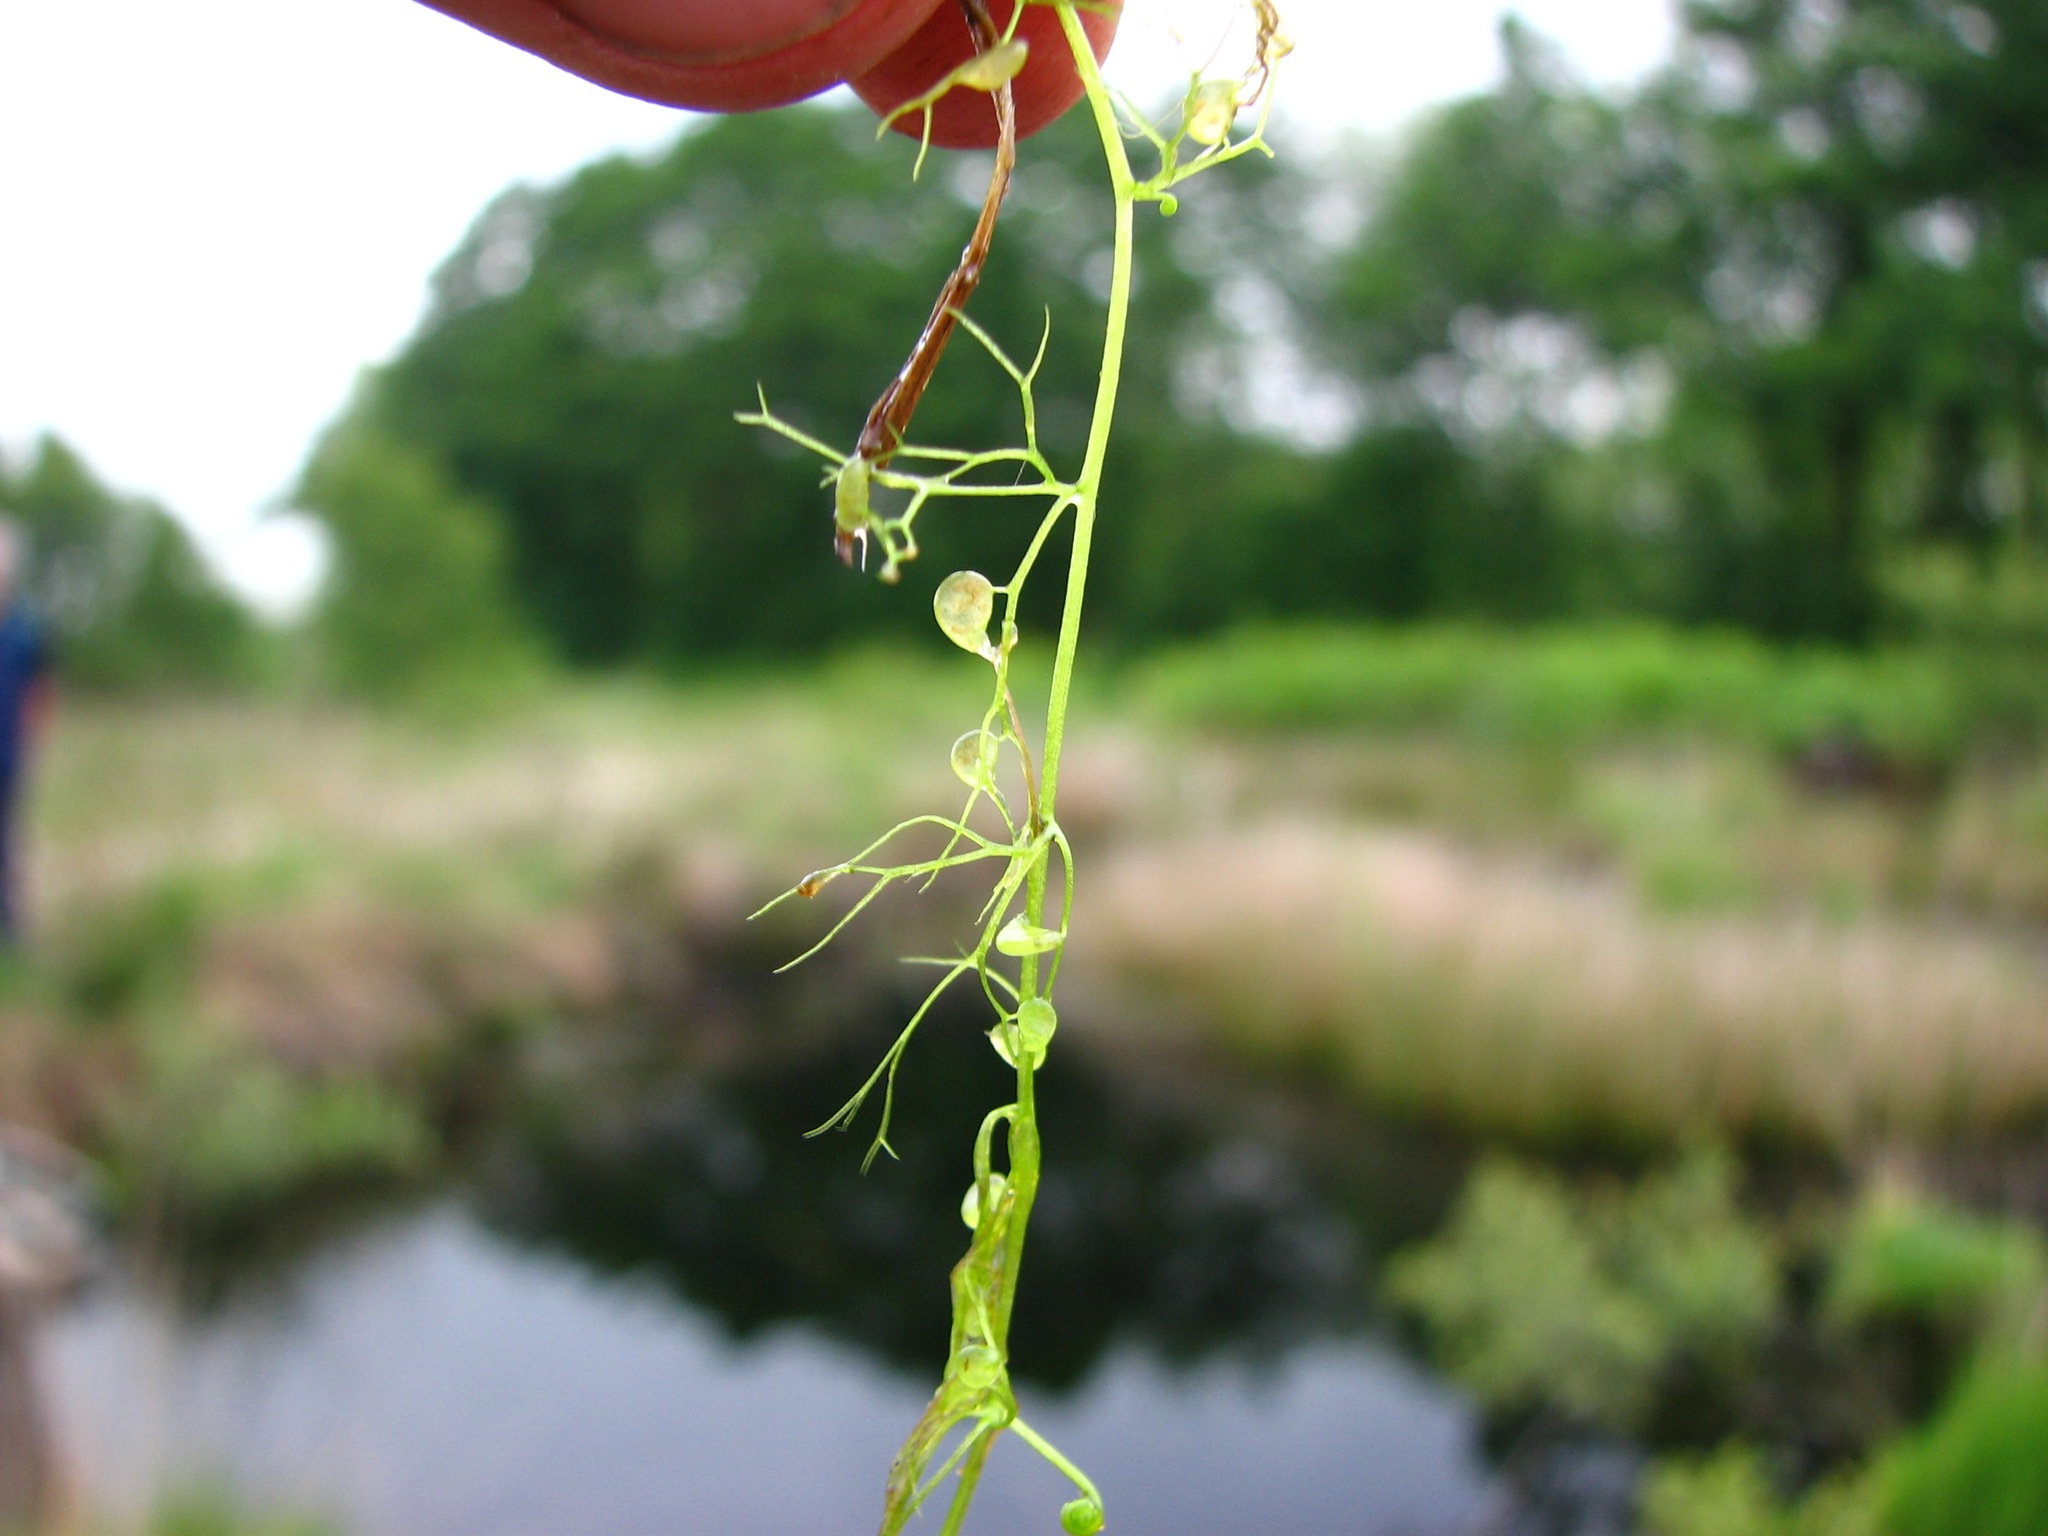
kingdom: Plantae
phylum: Tracheophyta
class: Magnoliopsida
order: Lamiales
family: Lentibulariaceae
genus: Utricularia
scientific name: Utricularia minor
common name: Lesser bladderwort
